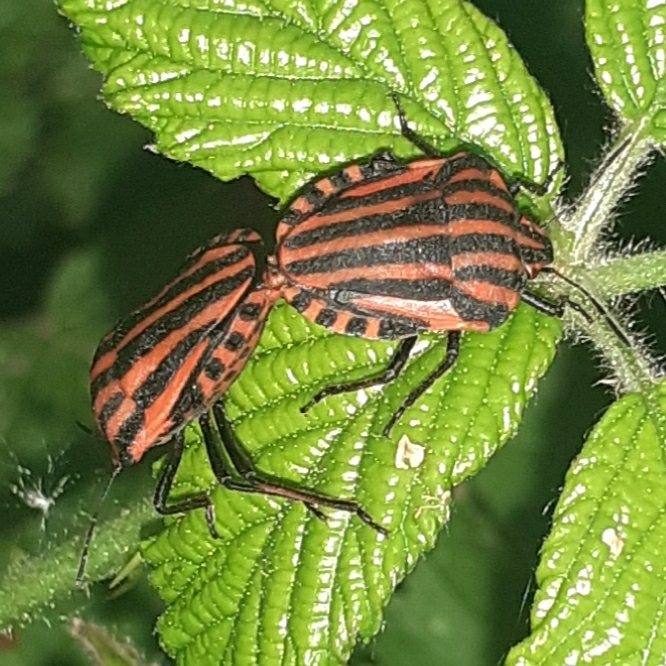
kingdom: Animalia
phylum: Arthropoda
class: Insecta
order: Hemiptera
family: Pentatomidae
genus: Graphosoma
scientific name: Graphosoma italicum
